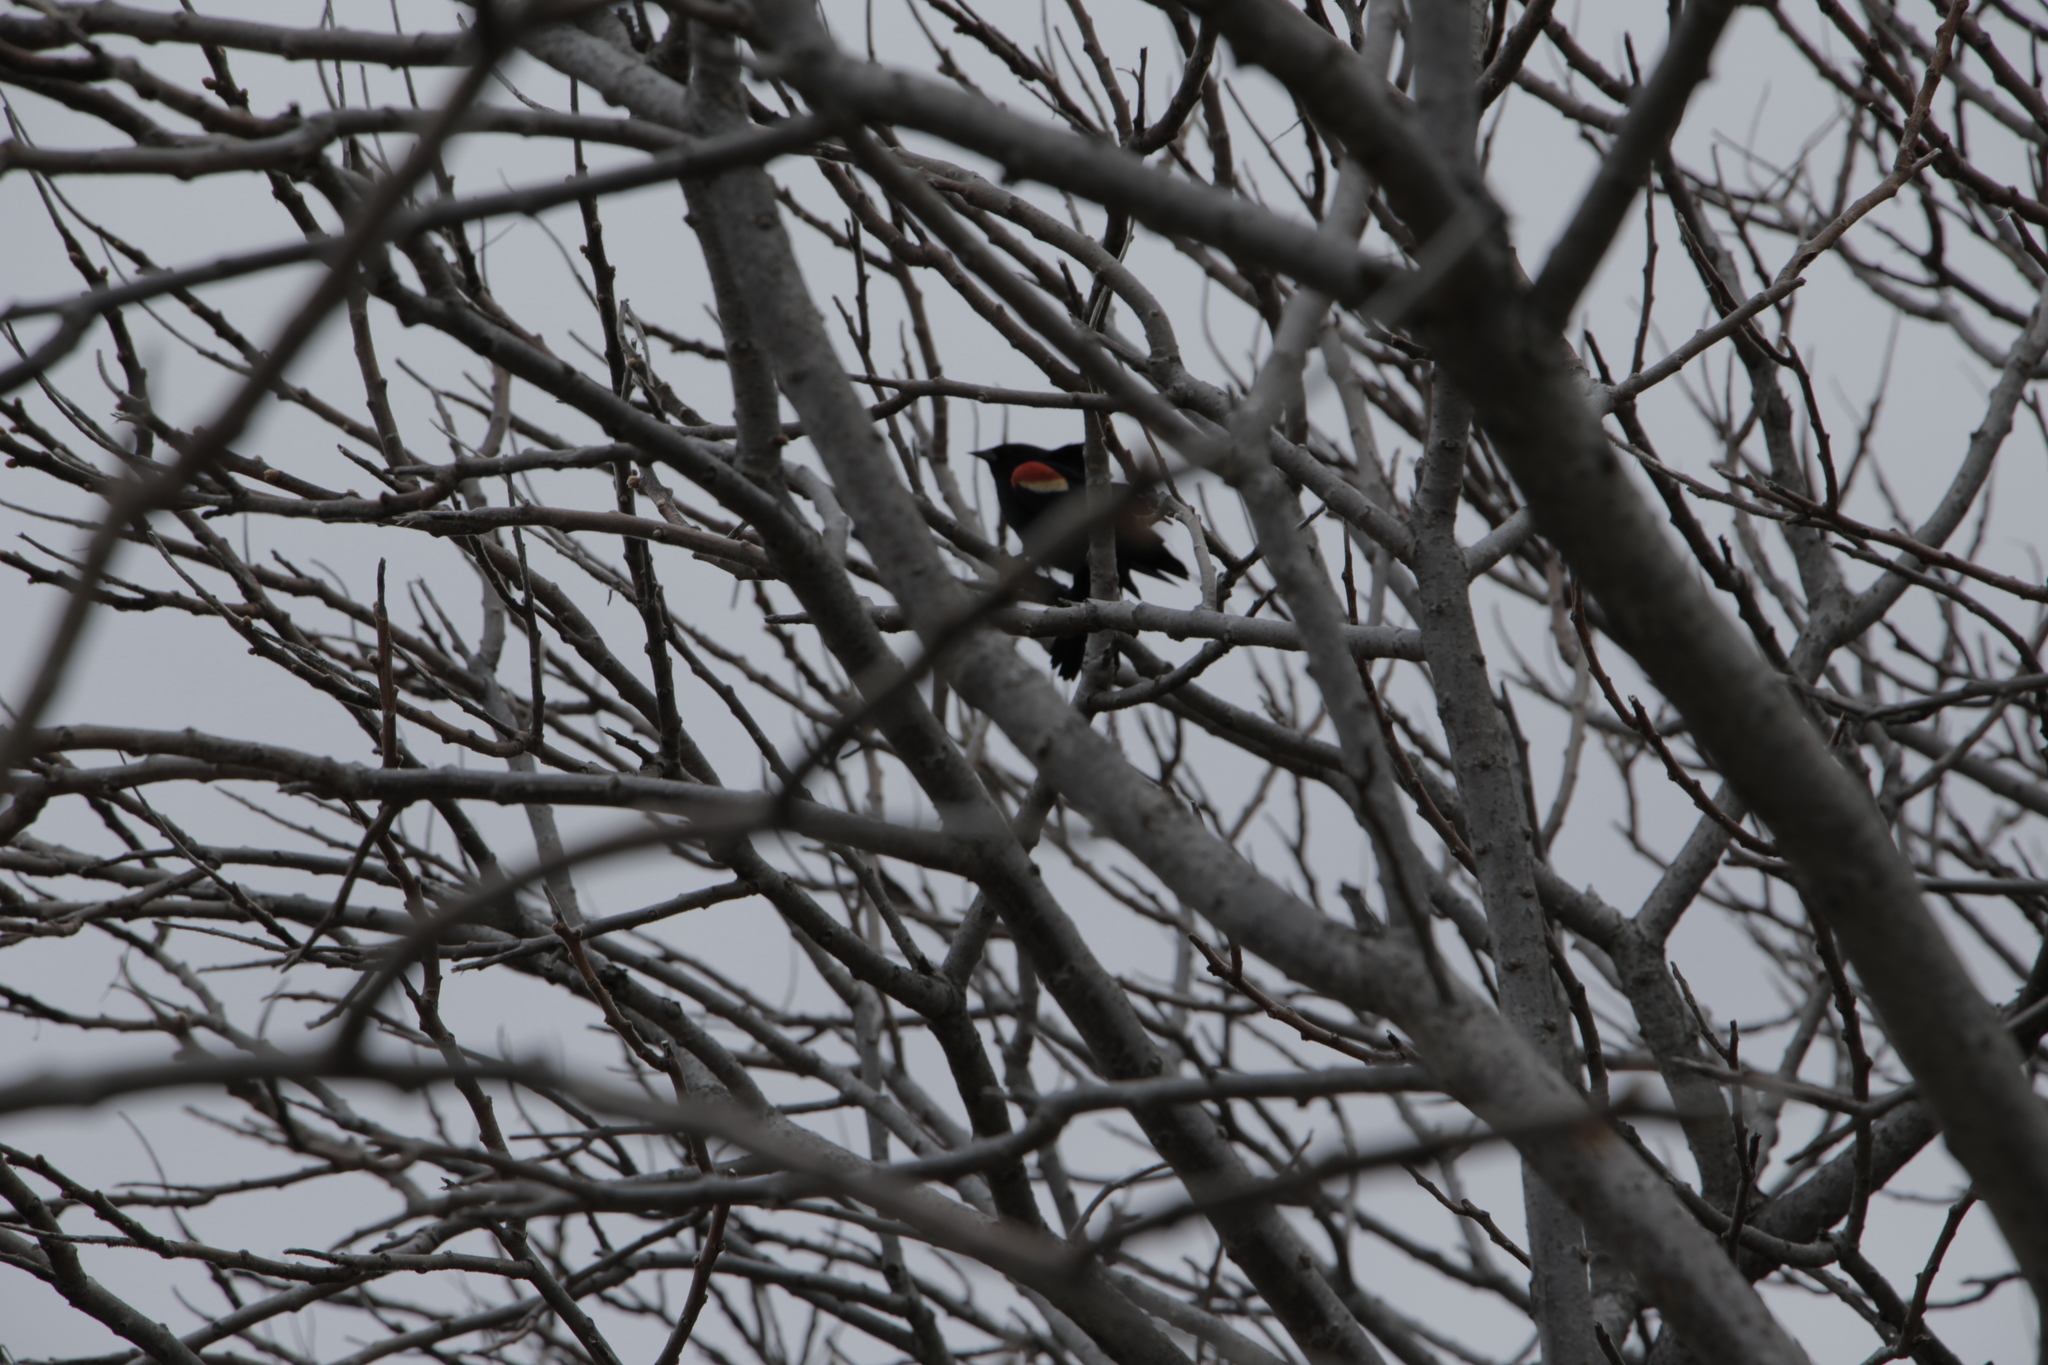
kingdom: Animalia
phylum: Chordata
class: Aves
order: Passeriformes
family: Icteridae
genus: Agelaius
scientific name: Agelaius phoeniceus
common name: Red-winged blackbird
